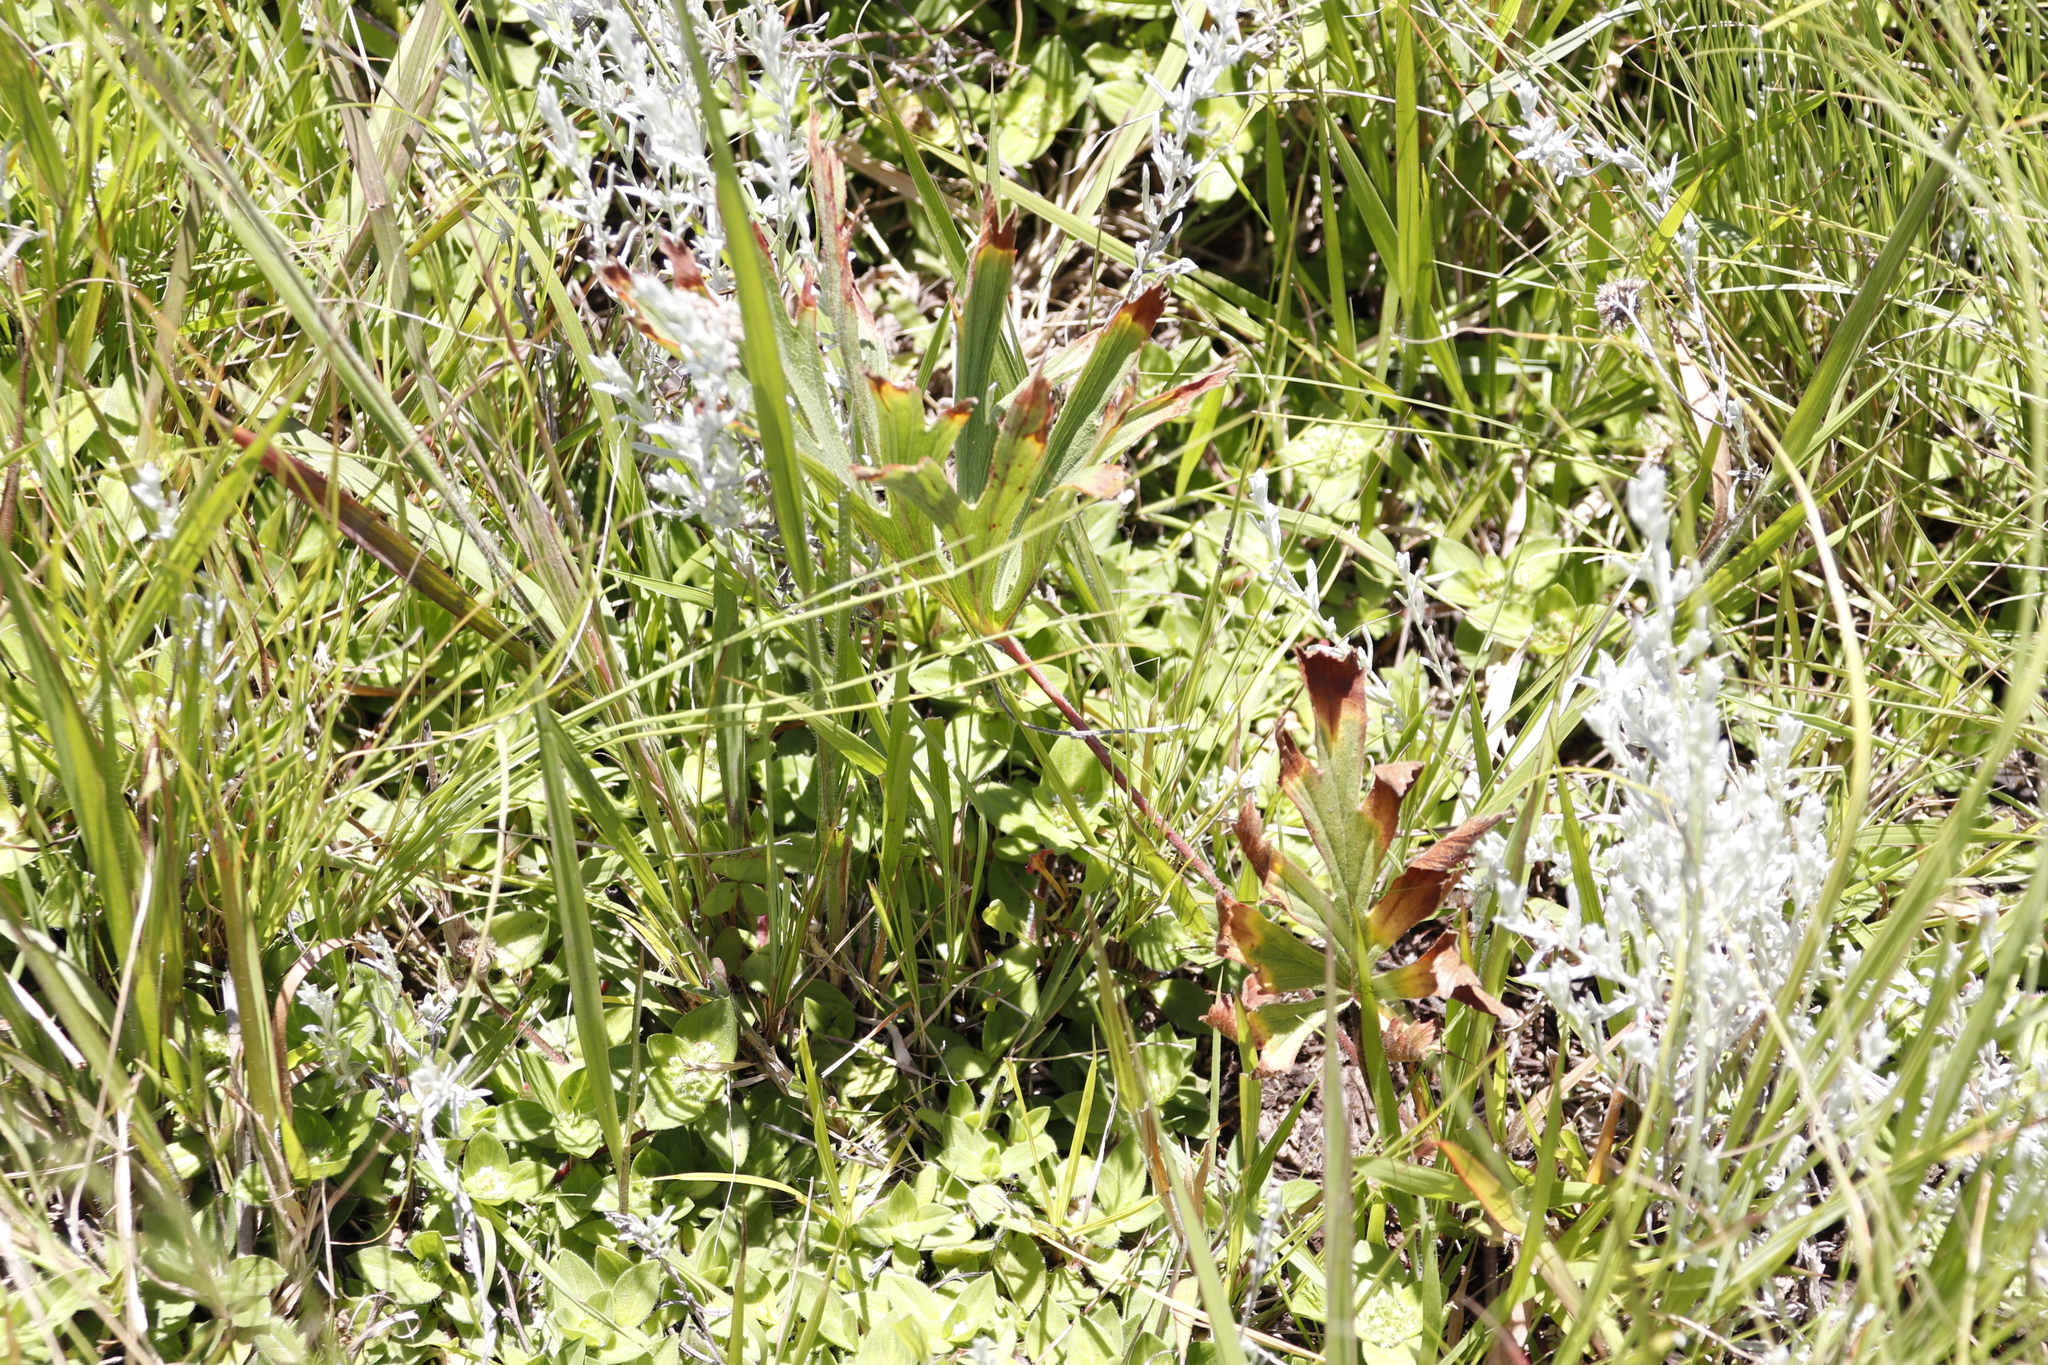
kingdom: Plantae
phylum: Tracheophyta
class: Magnoliopsida
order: Geraniales
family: Geraniaceae
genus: Pelargonium
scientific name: Pelargonium luridum
